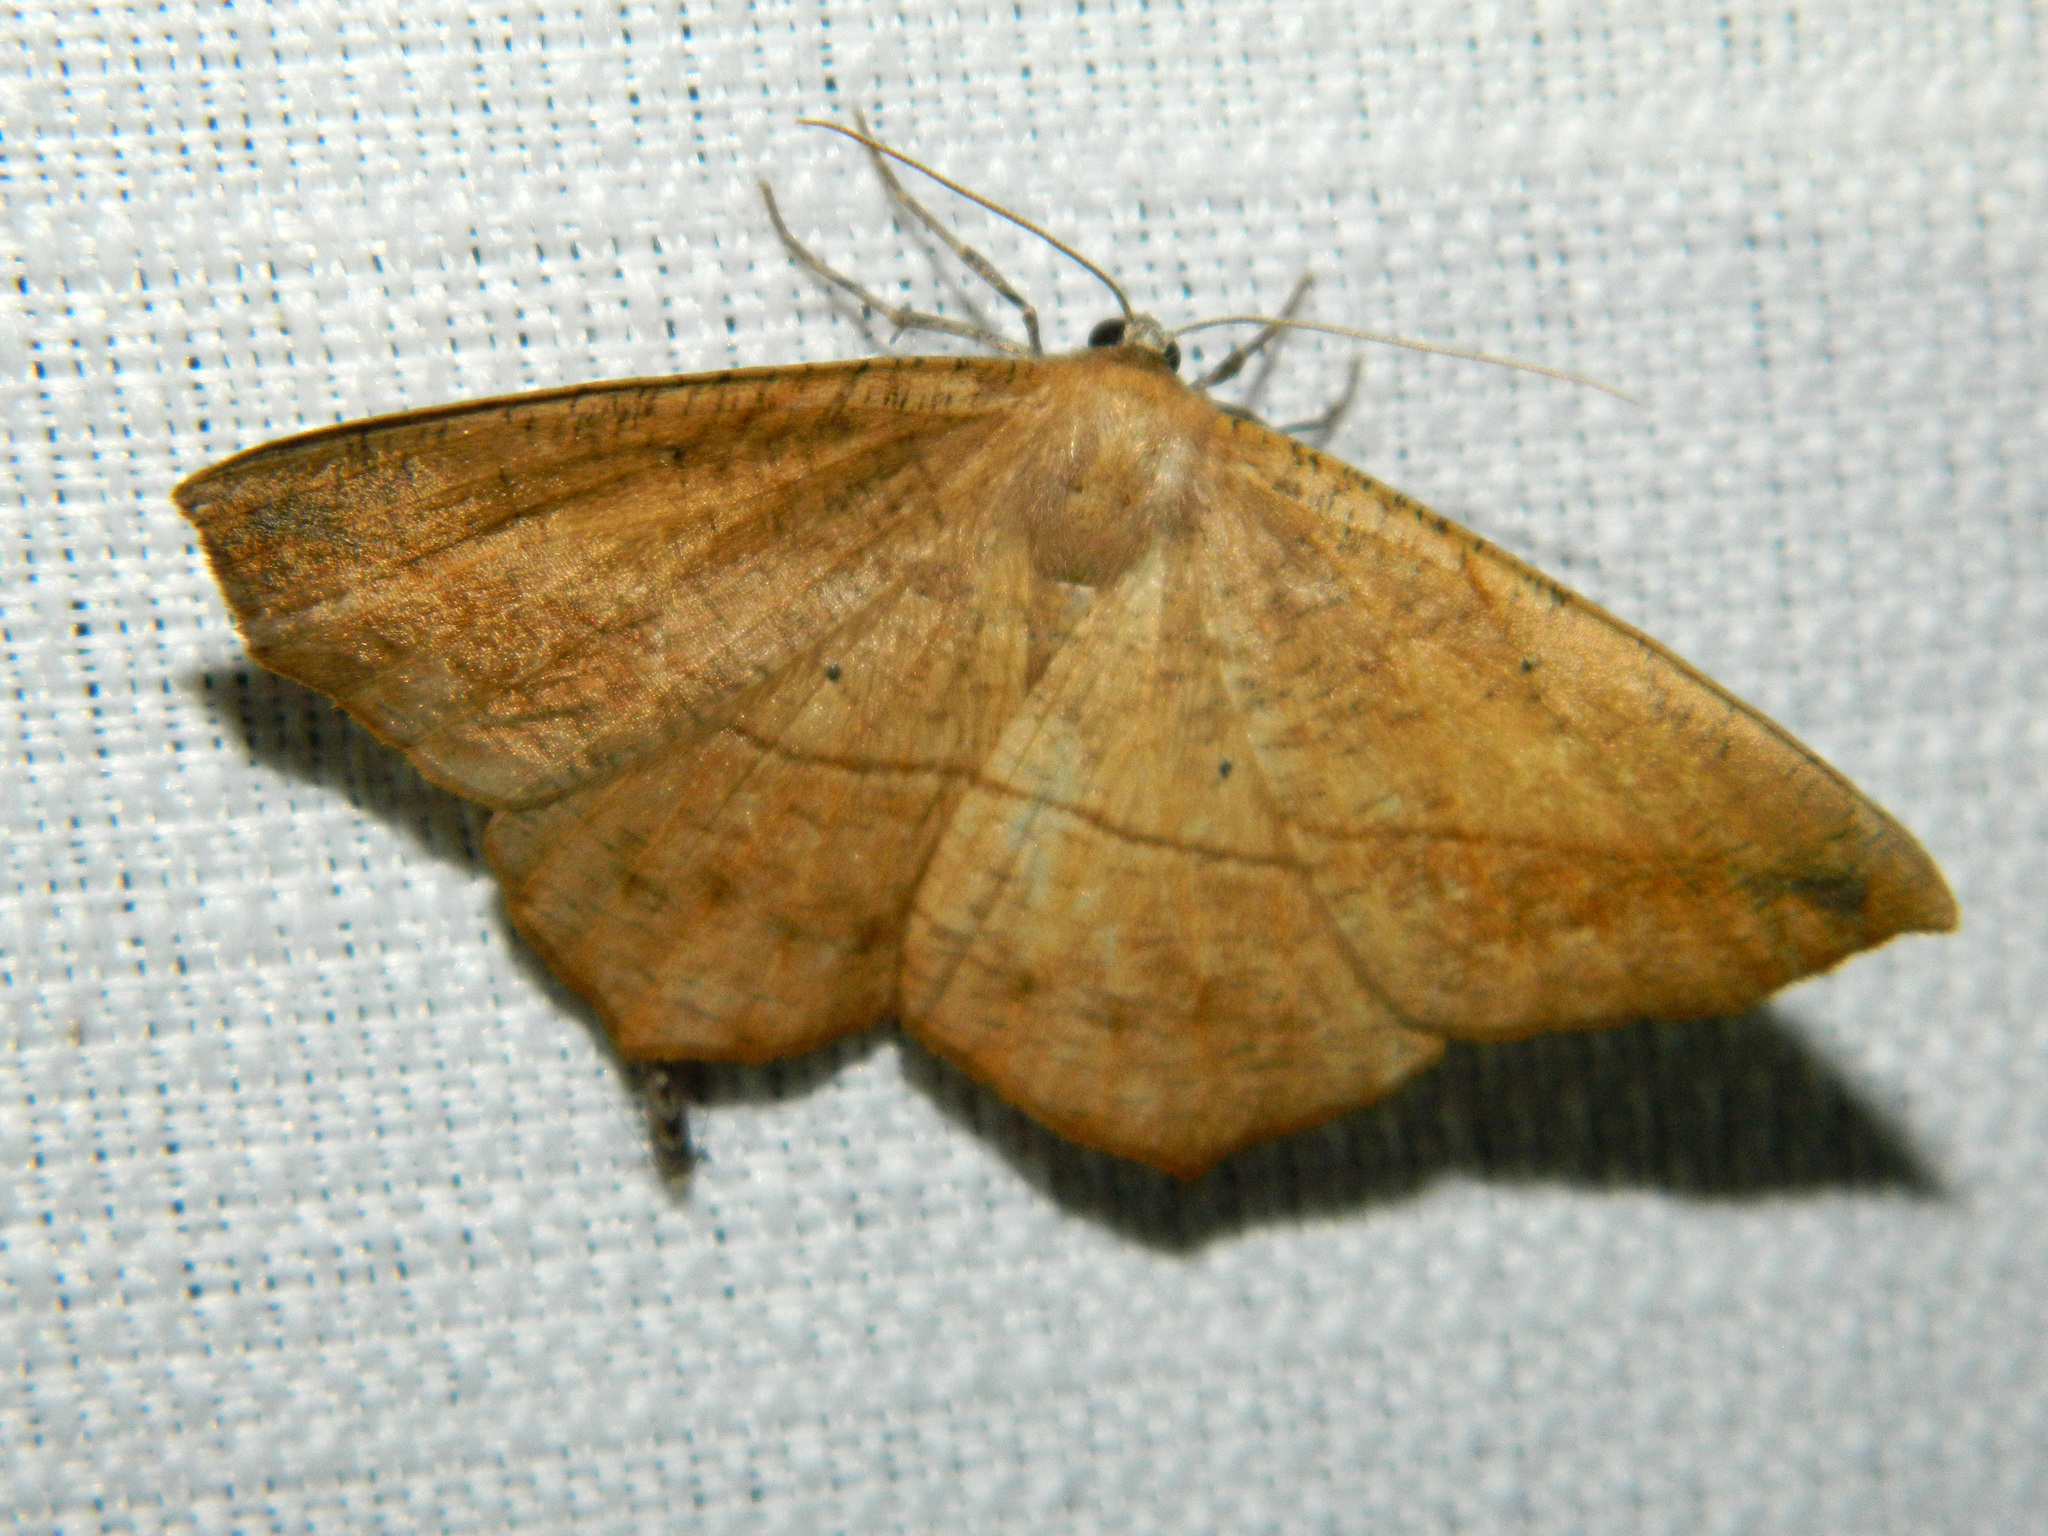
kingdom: Animalia
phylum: Arthropoda
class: Insecta
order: Lepidoptera
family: Geometridae
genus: Prochoerodes
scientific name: Prochoerodes lineola
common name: Large maple spanworm
